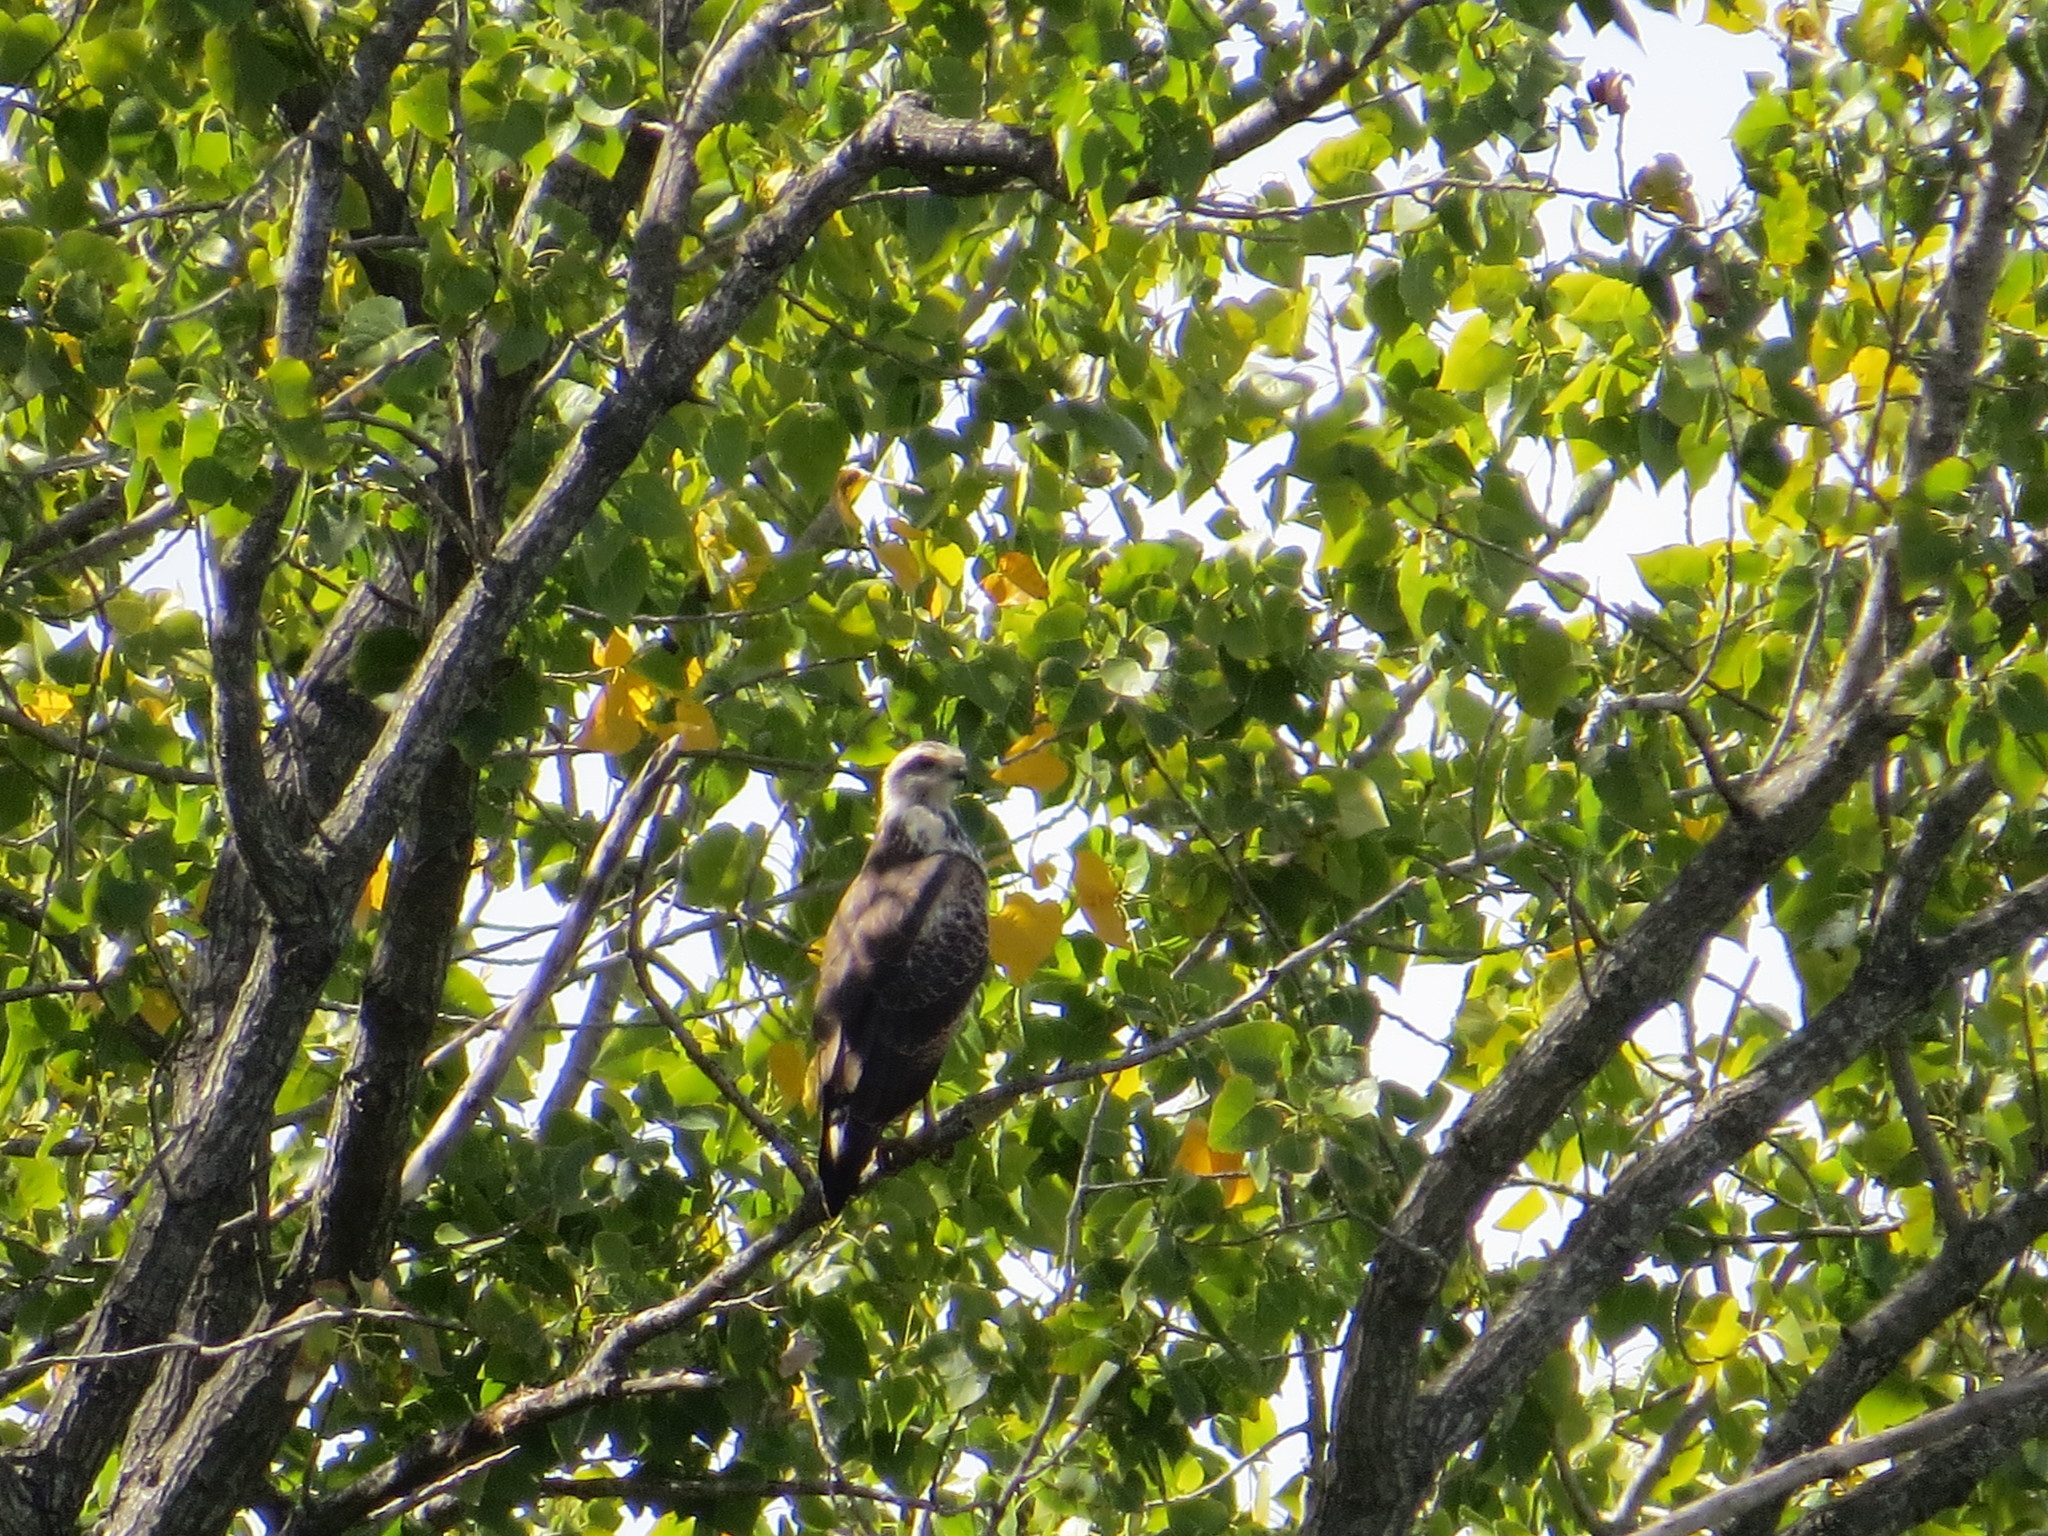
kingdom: Animalia
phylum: Chordata
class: Aves
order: Accipitriformes
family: Accipitridae
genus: Rostrhamus
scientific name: Rostrhamus sociabilis
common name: Snail kite
